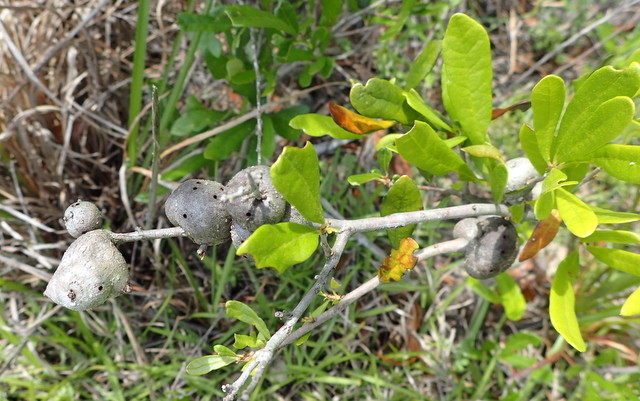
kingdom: Animalia
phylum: Arthropoda
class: Insecta
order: Hymenoptera
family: Cynipidae
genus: Callirhytis
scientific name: Callirhytis
